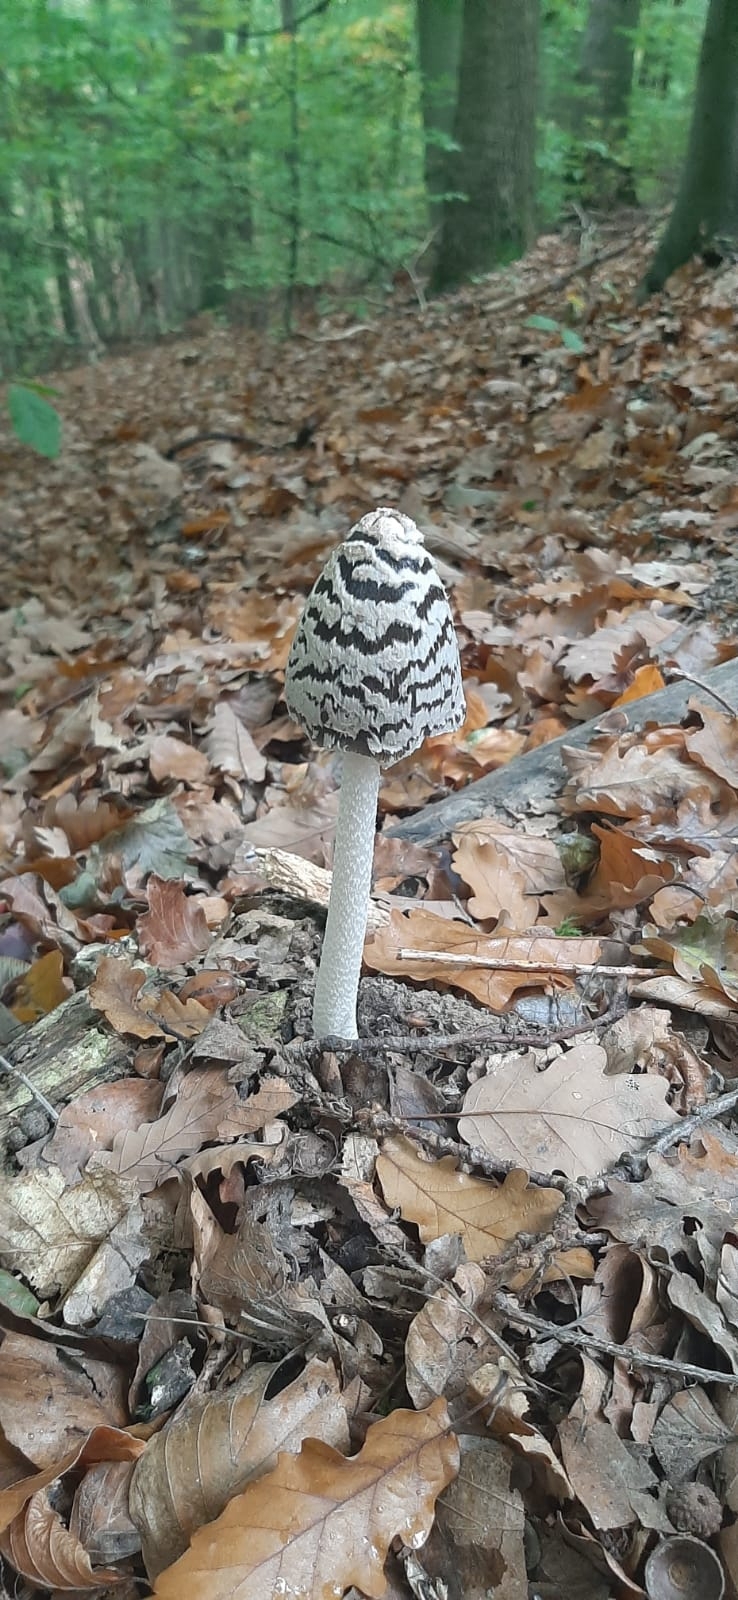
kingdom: Fungi
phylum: Basidiomycota
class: Agaricomycetes
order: Agaricales
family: Psathyrellaceae
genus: Coprinopsis
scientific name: Coprinopsis picacea
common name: Magpie inkcap
